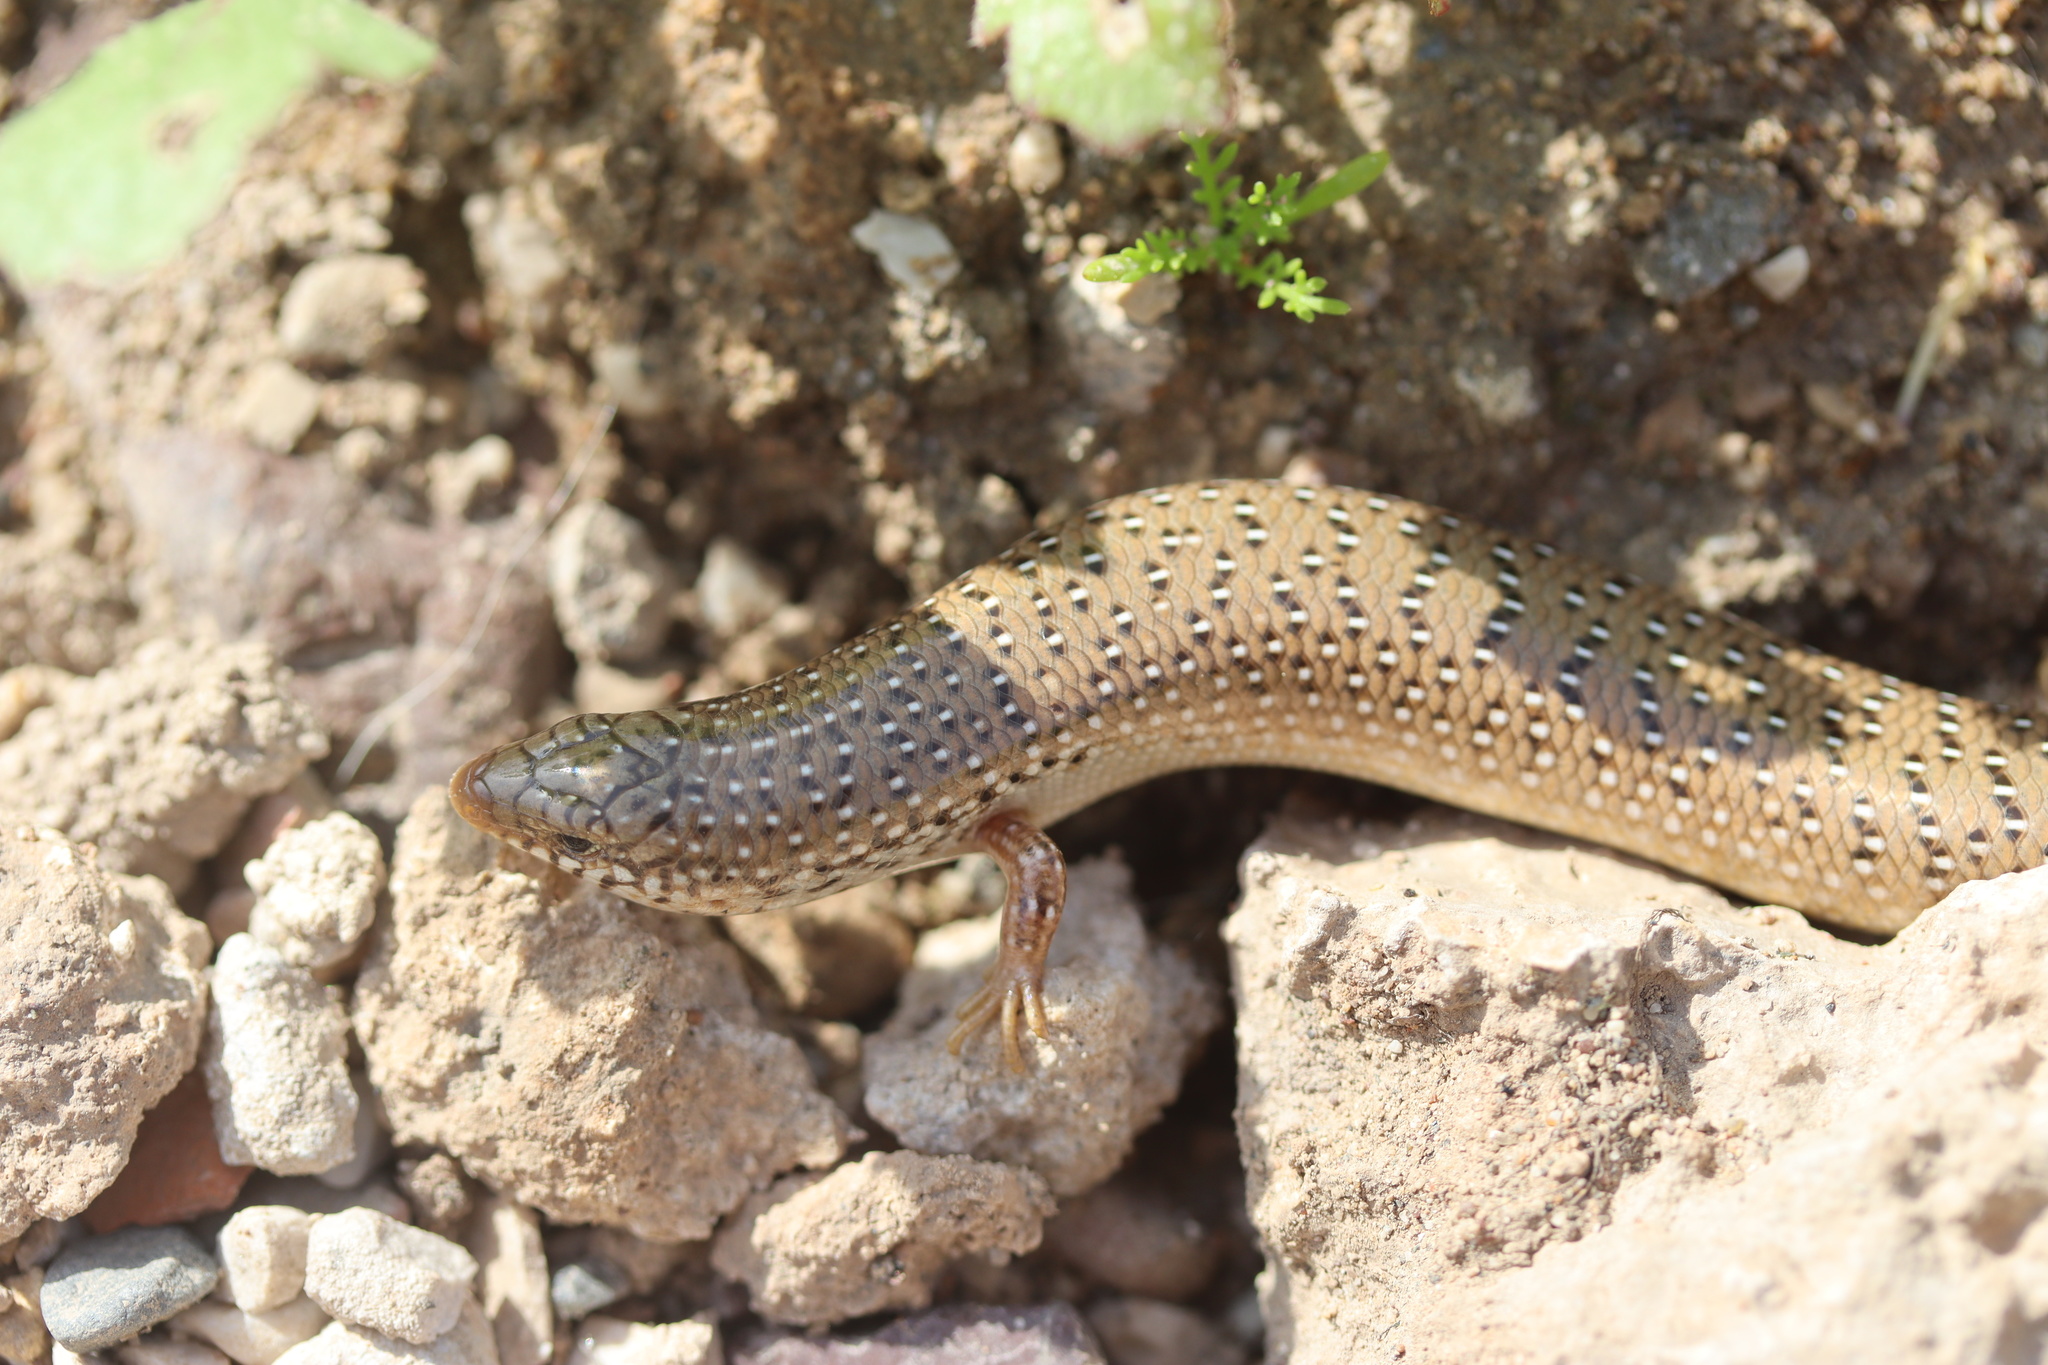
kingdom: Animalia
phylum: Chordata
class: Squamata
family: Scincidae
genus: Chalcides
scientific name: Chalcides ocellatus
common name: Ocellated skink
